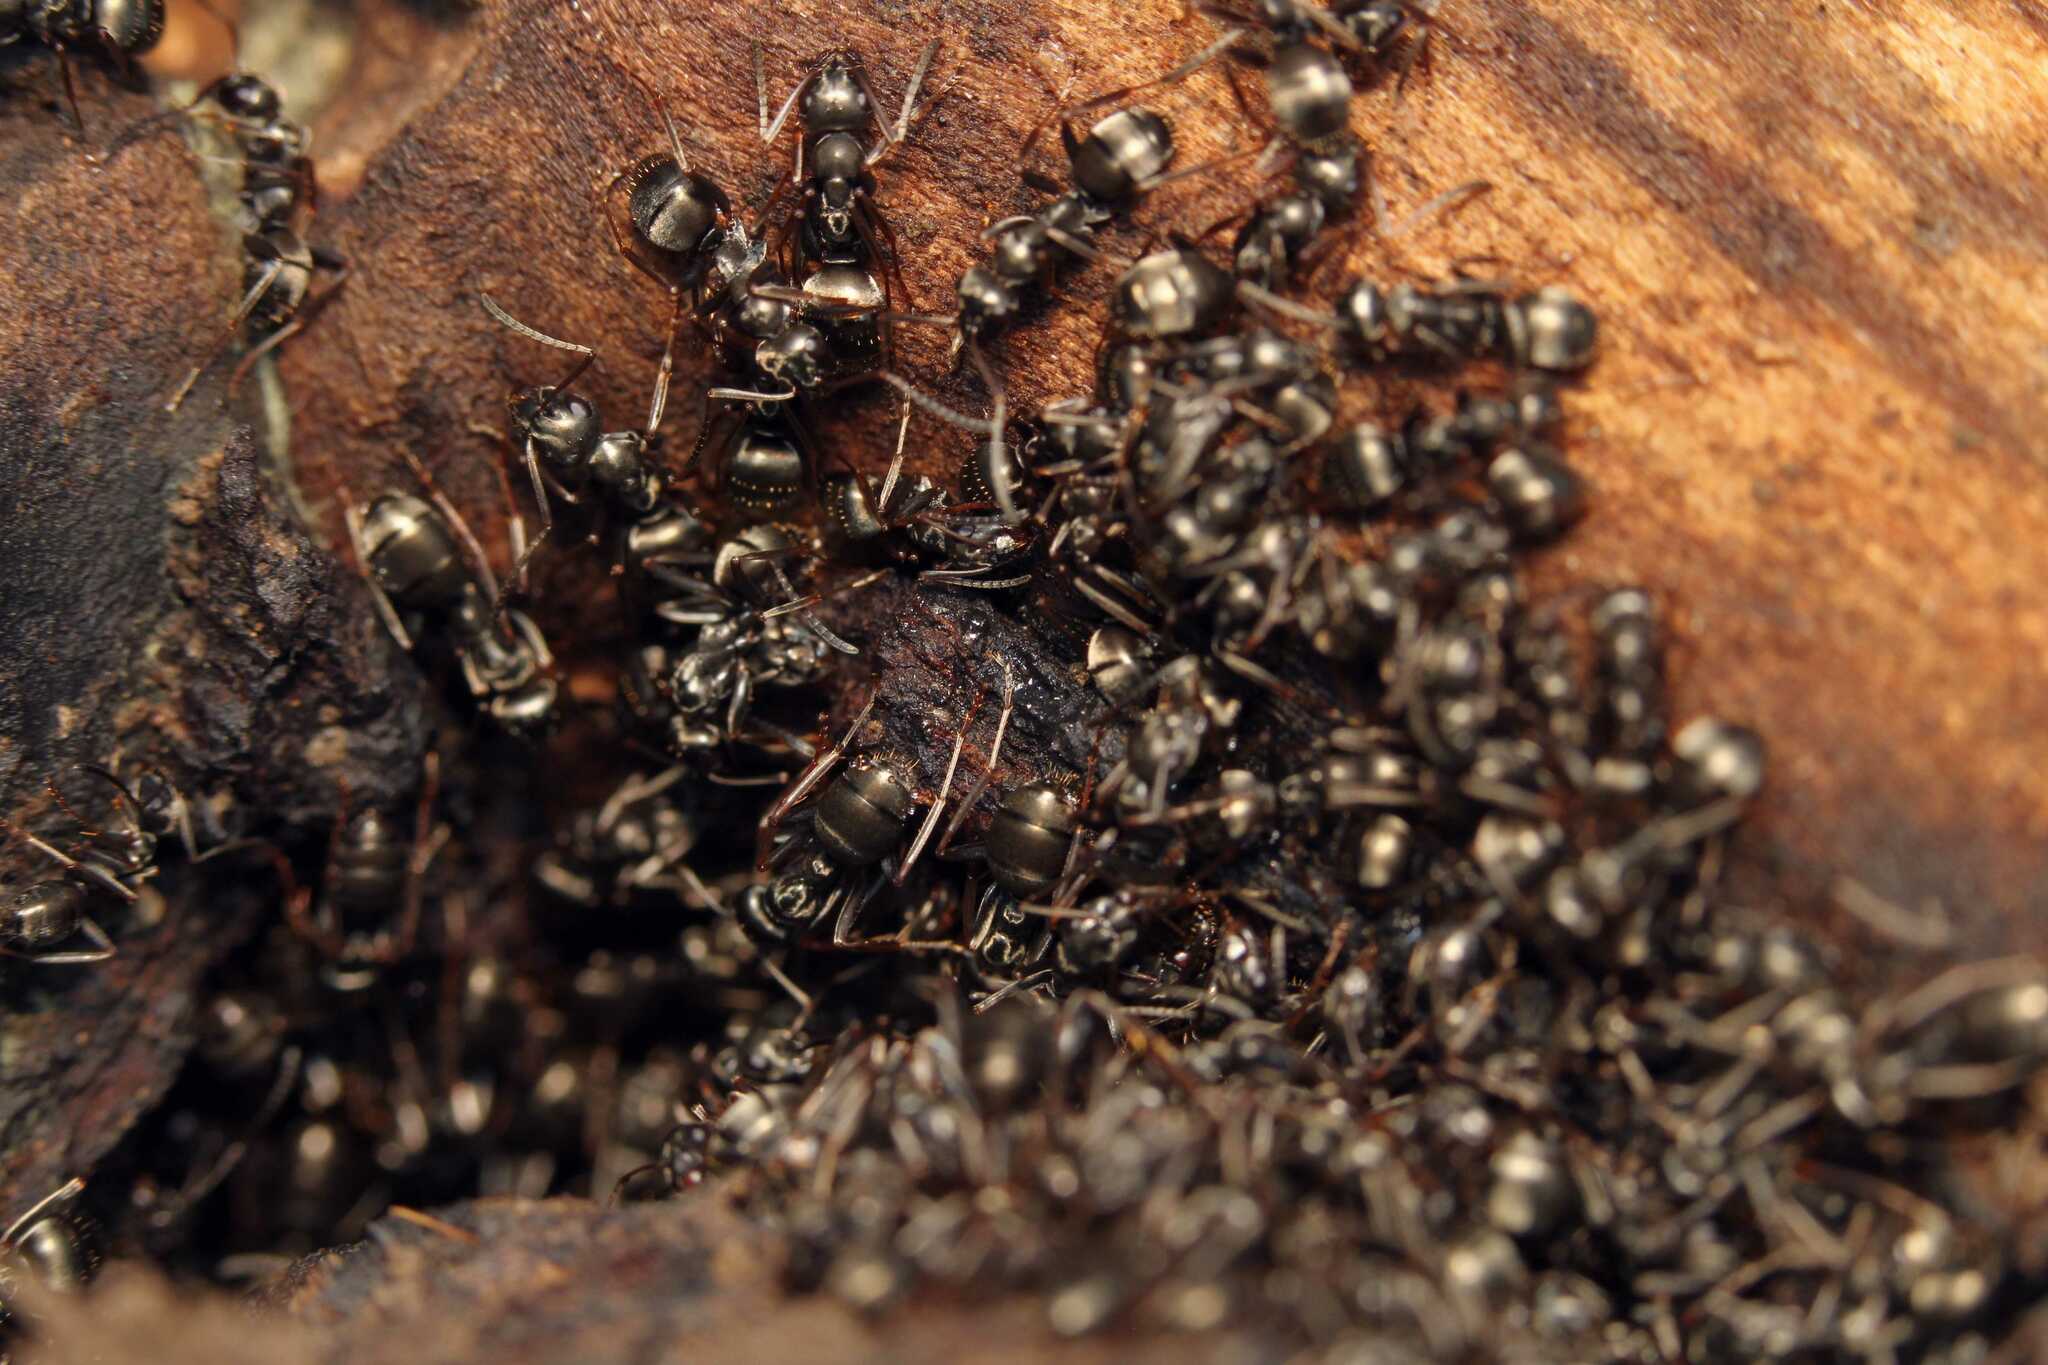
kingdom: Animalia
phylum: Arthropoda
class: Insecta
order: Hymenoptera
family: Formicidae
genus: Formica
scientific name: Formica fusca
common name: Silky ant
